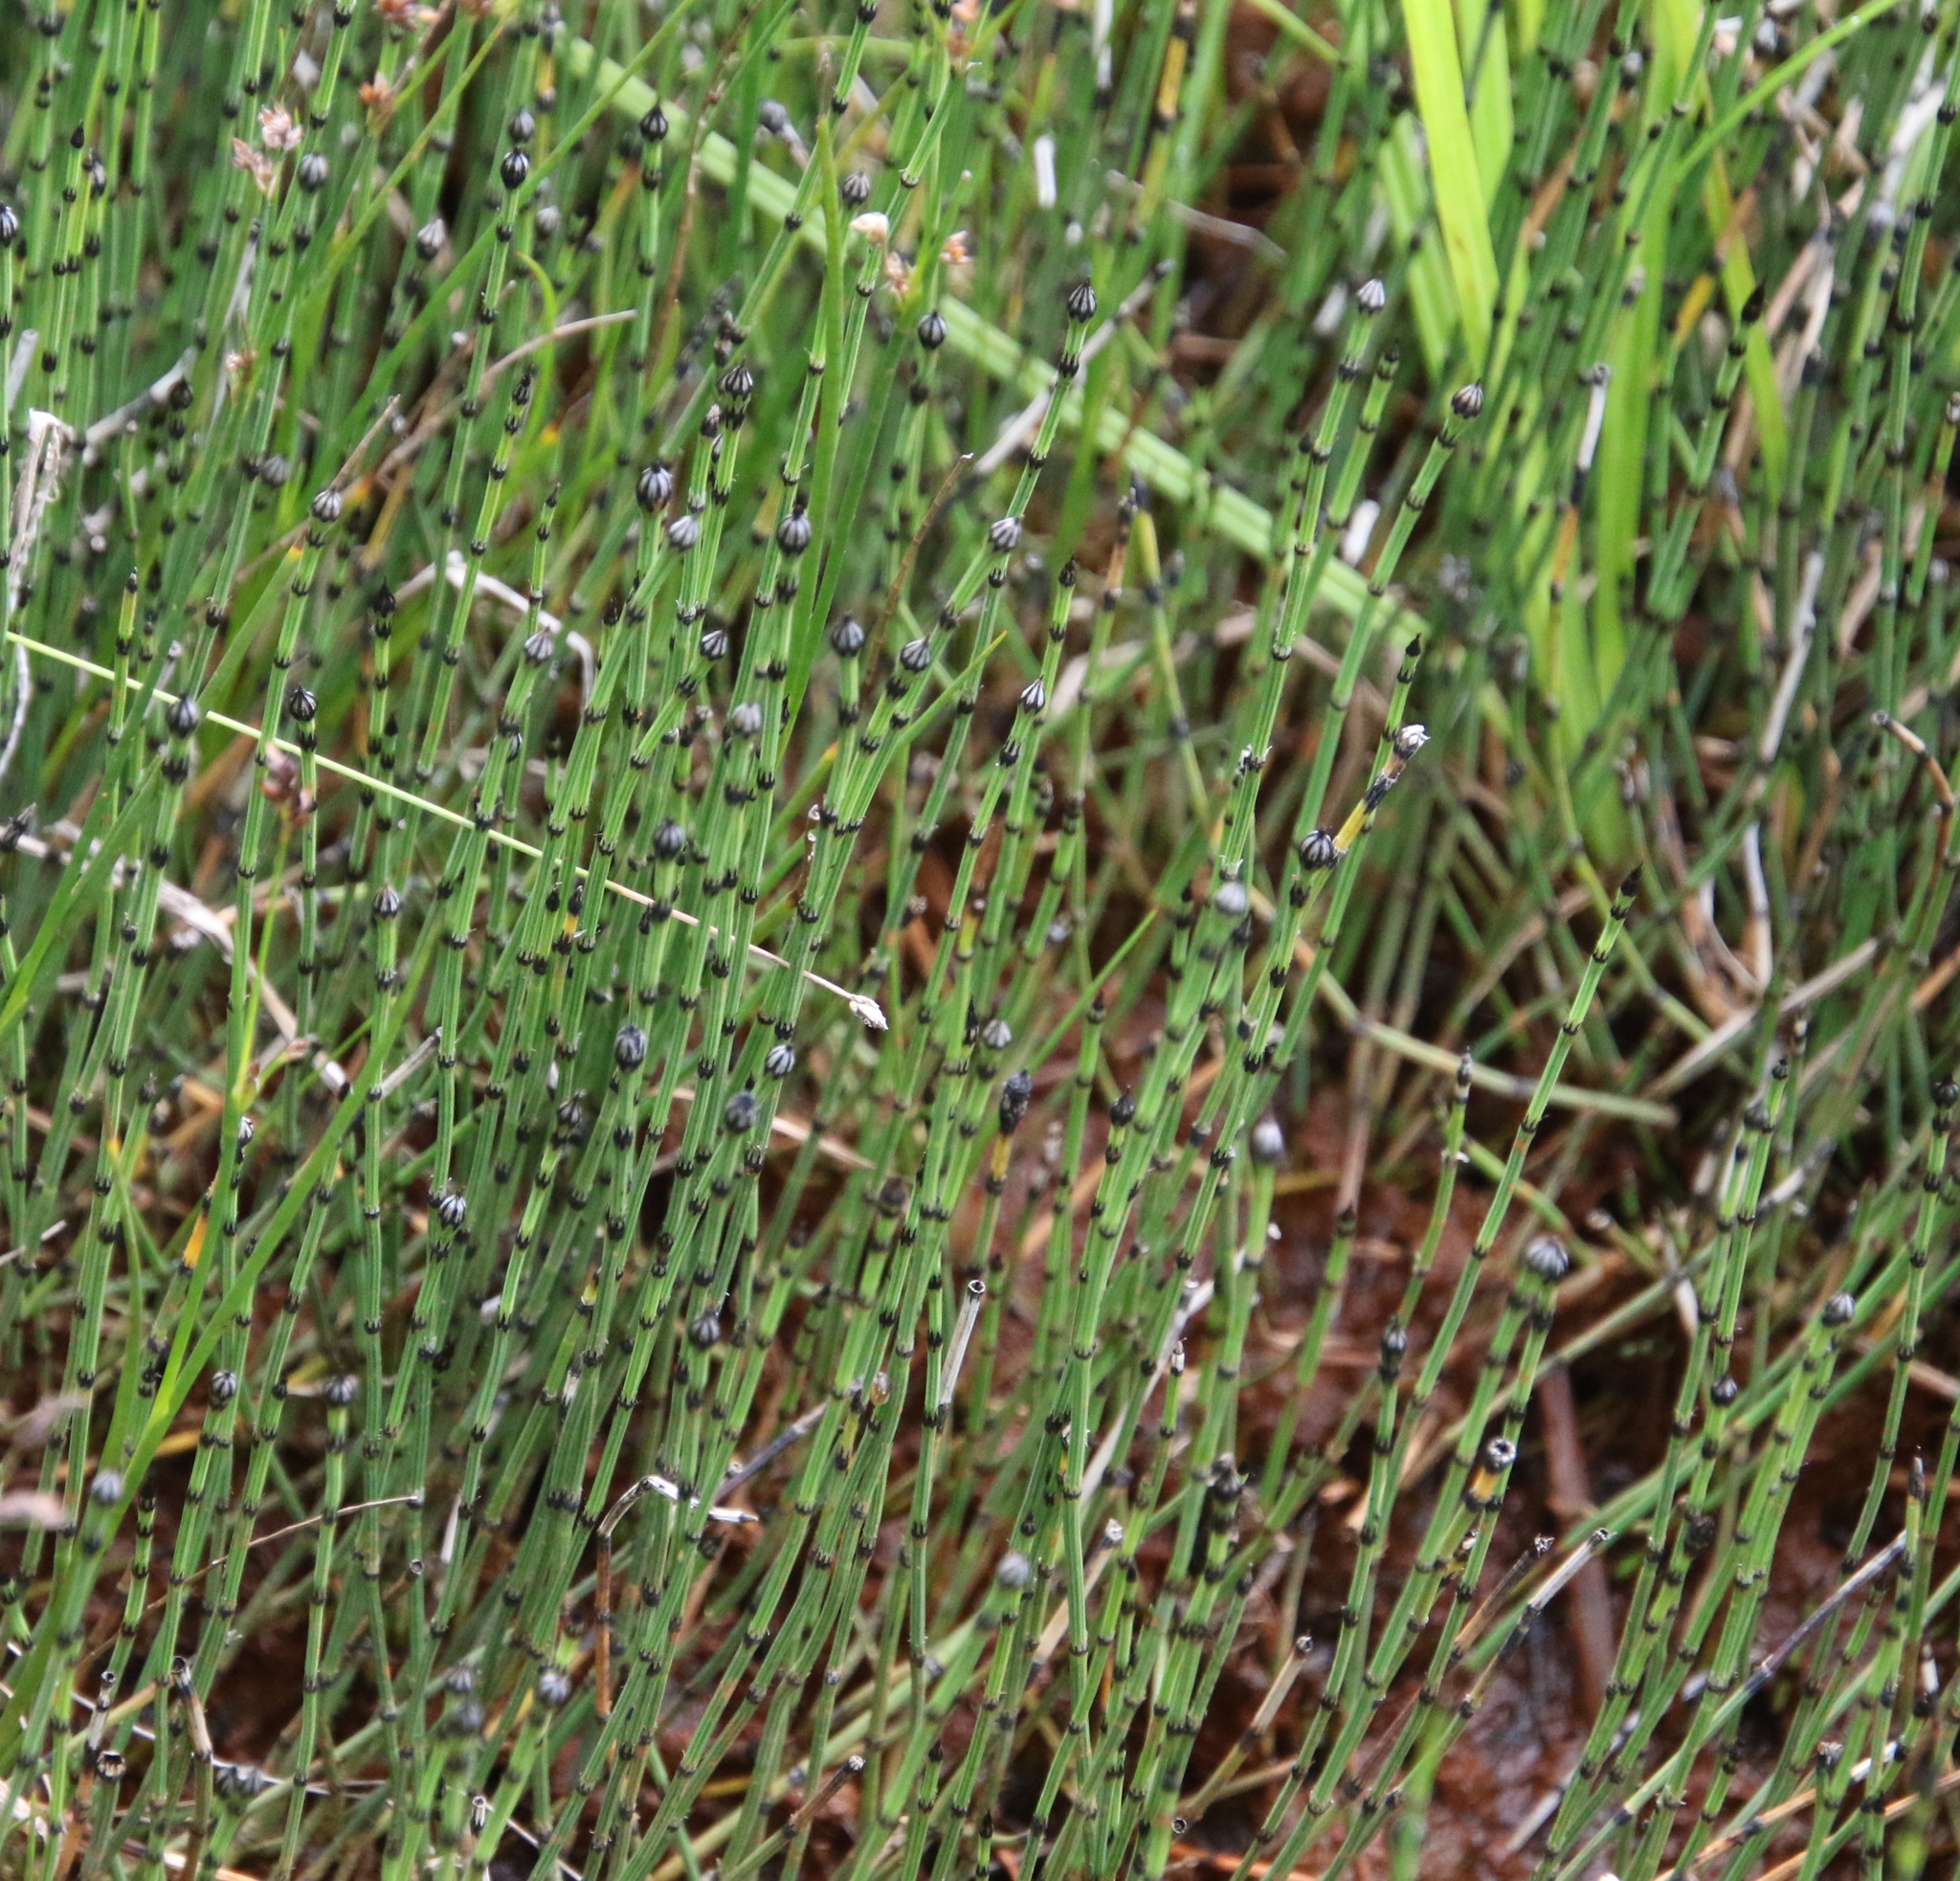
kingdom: Plantae
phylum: Tracheophyta
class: Polypodiopsida
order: Equisetales
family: Equisetaceae
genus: Equisetum
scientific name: Equisetum variegatum
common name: Variegated horsetail
